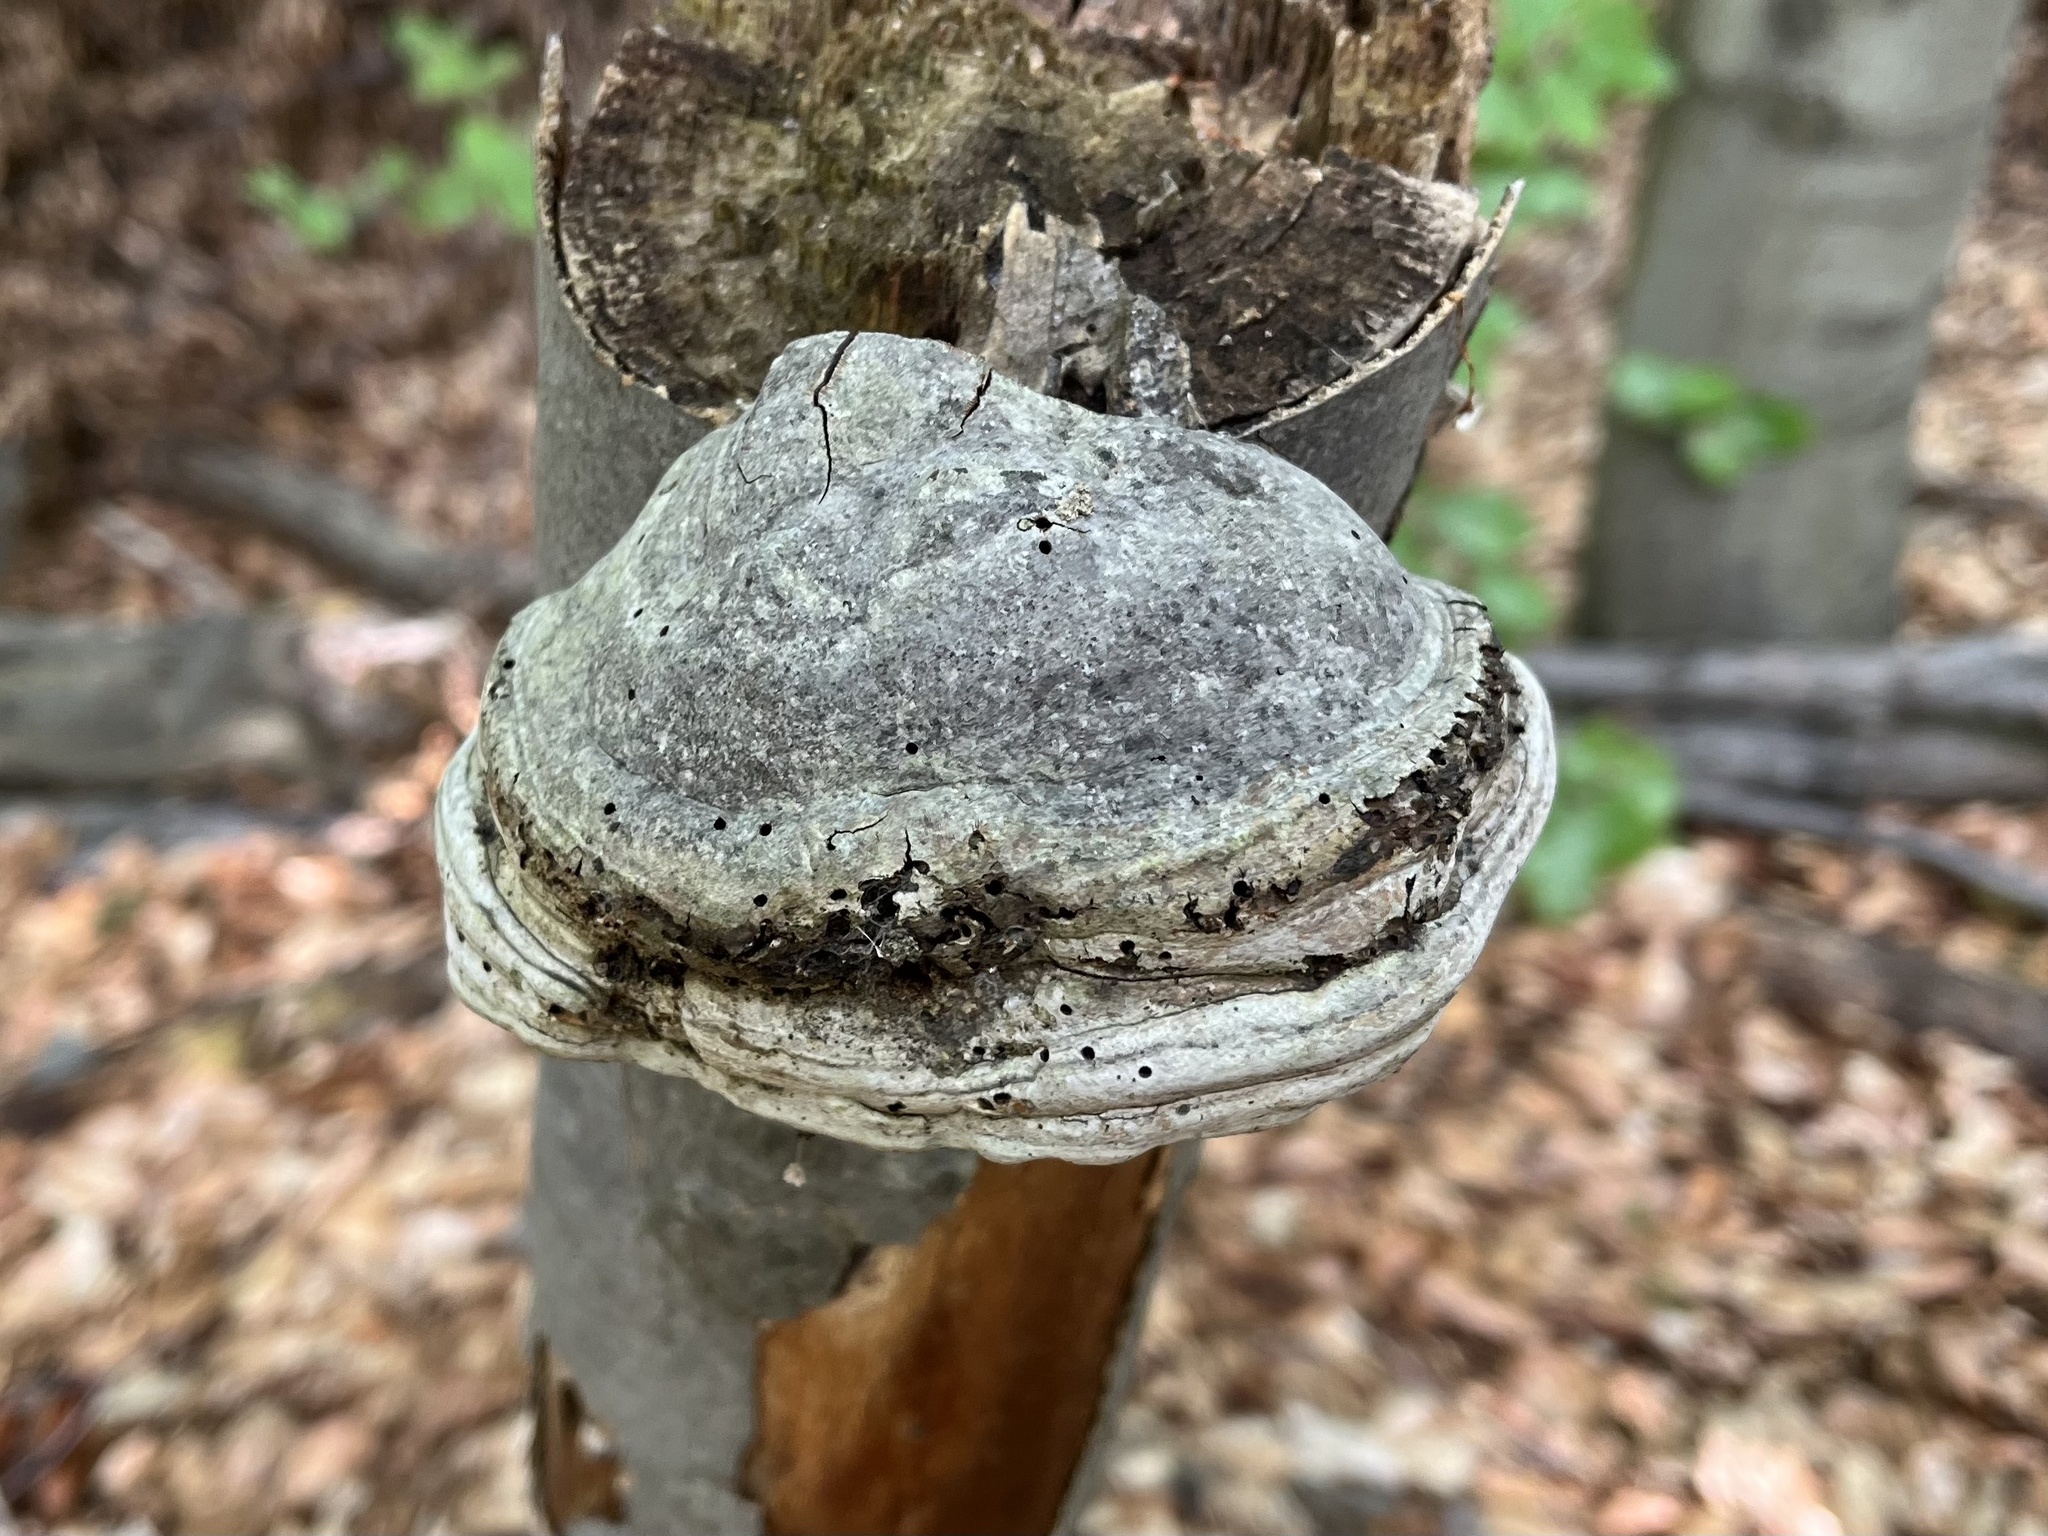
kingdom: Fungi
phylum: Basidiomycota
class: Agaricomycetes
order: Polyporales
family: Polyporaceae
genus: Fomes
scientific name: Fomes fomentarius
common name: Hoof fungus
